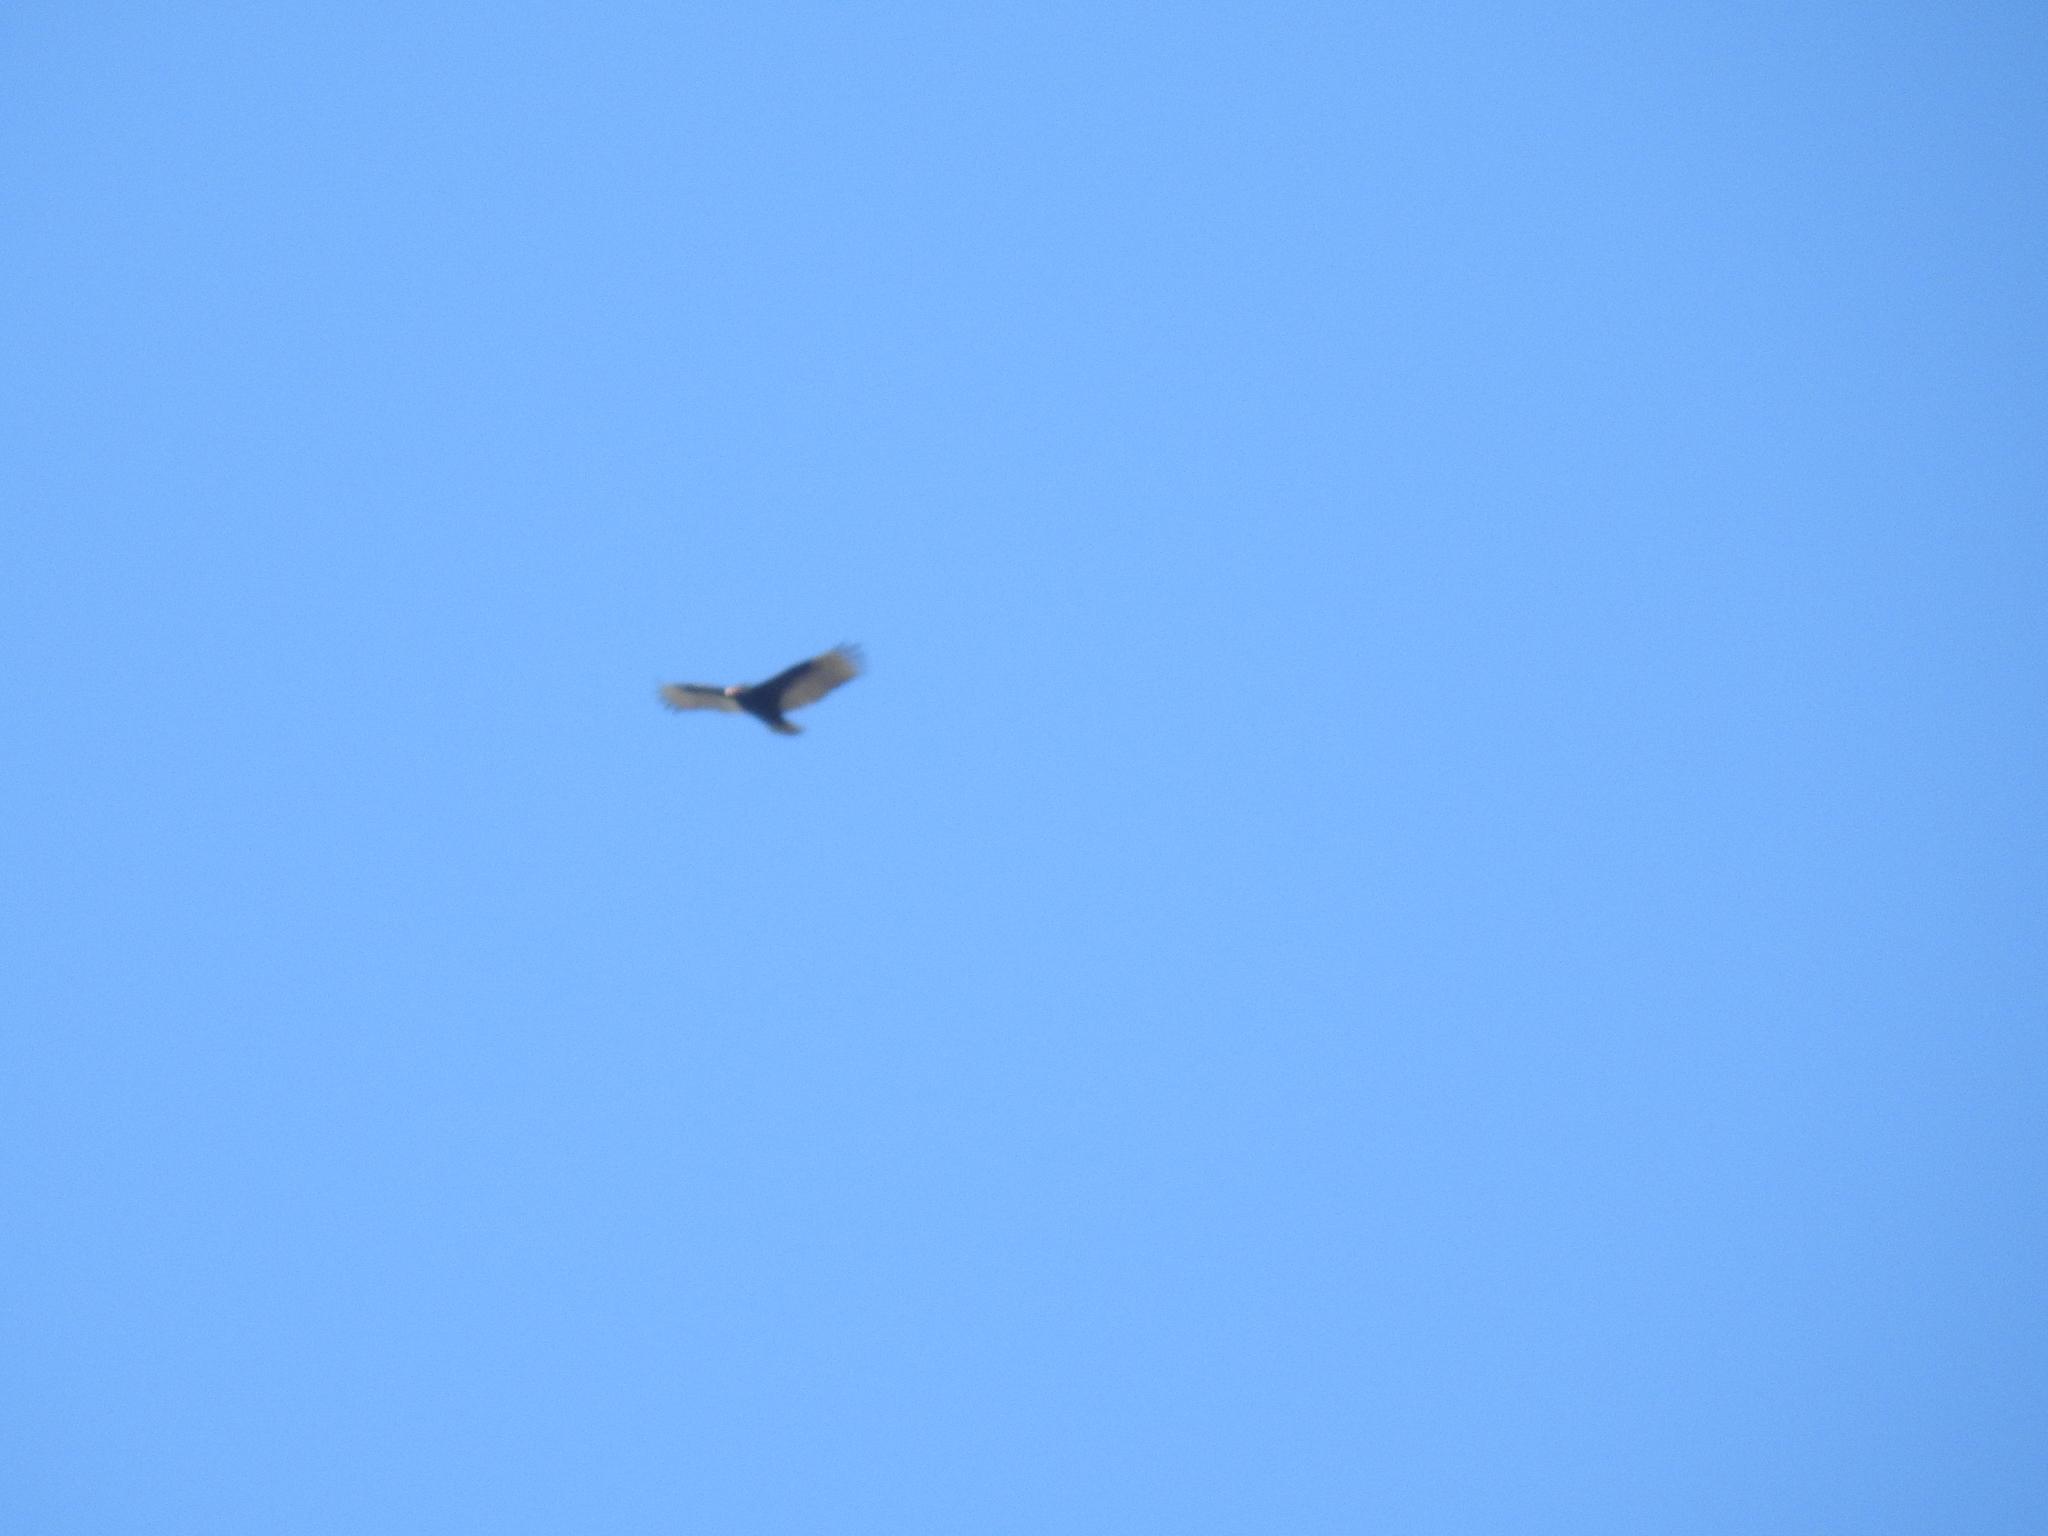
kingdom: Animalia
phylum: Chordata
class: Aves
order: Accipitriformes
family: Cathartidae
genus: Cathartes
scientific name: Cathartes aura
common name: Turkey vulture
